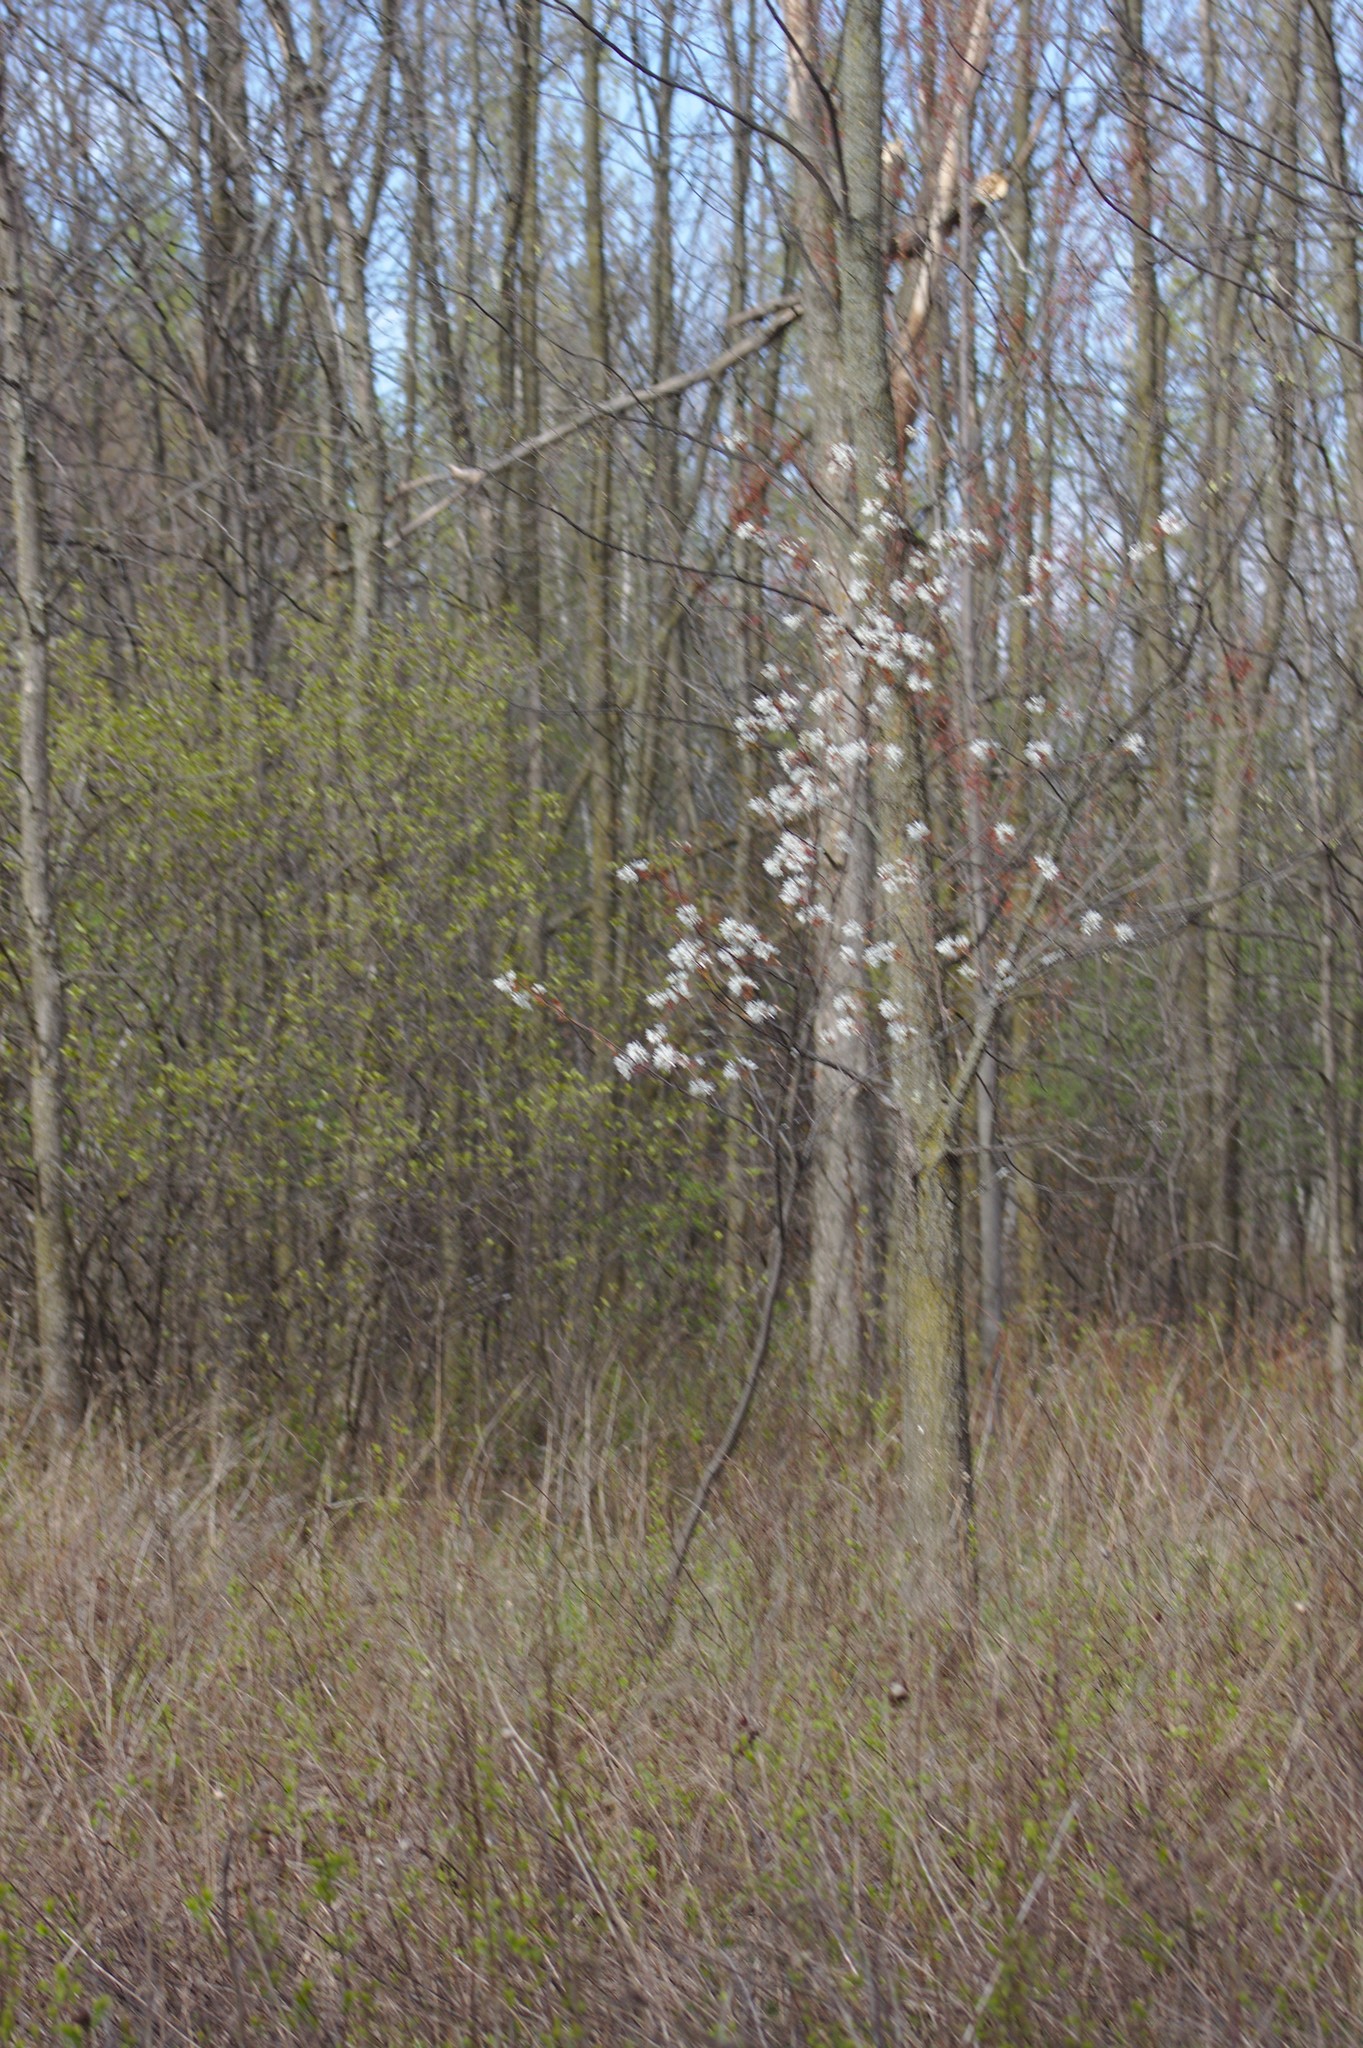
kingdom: Plantae
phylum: Tracheophyta
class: Magnoliopsida
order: Rosales
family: Rosaceae
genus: Amelanchier
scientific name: Amelanchier laevis
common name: Allegheny serviceberry
